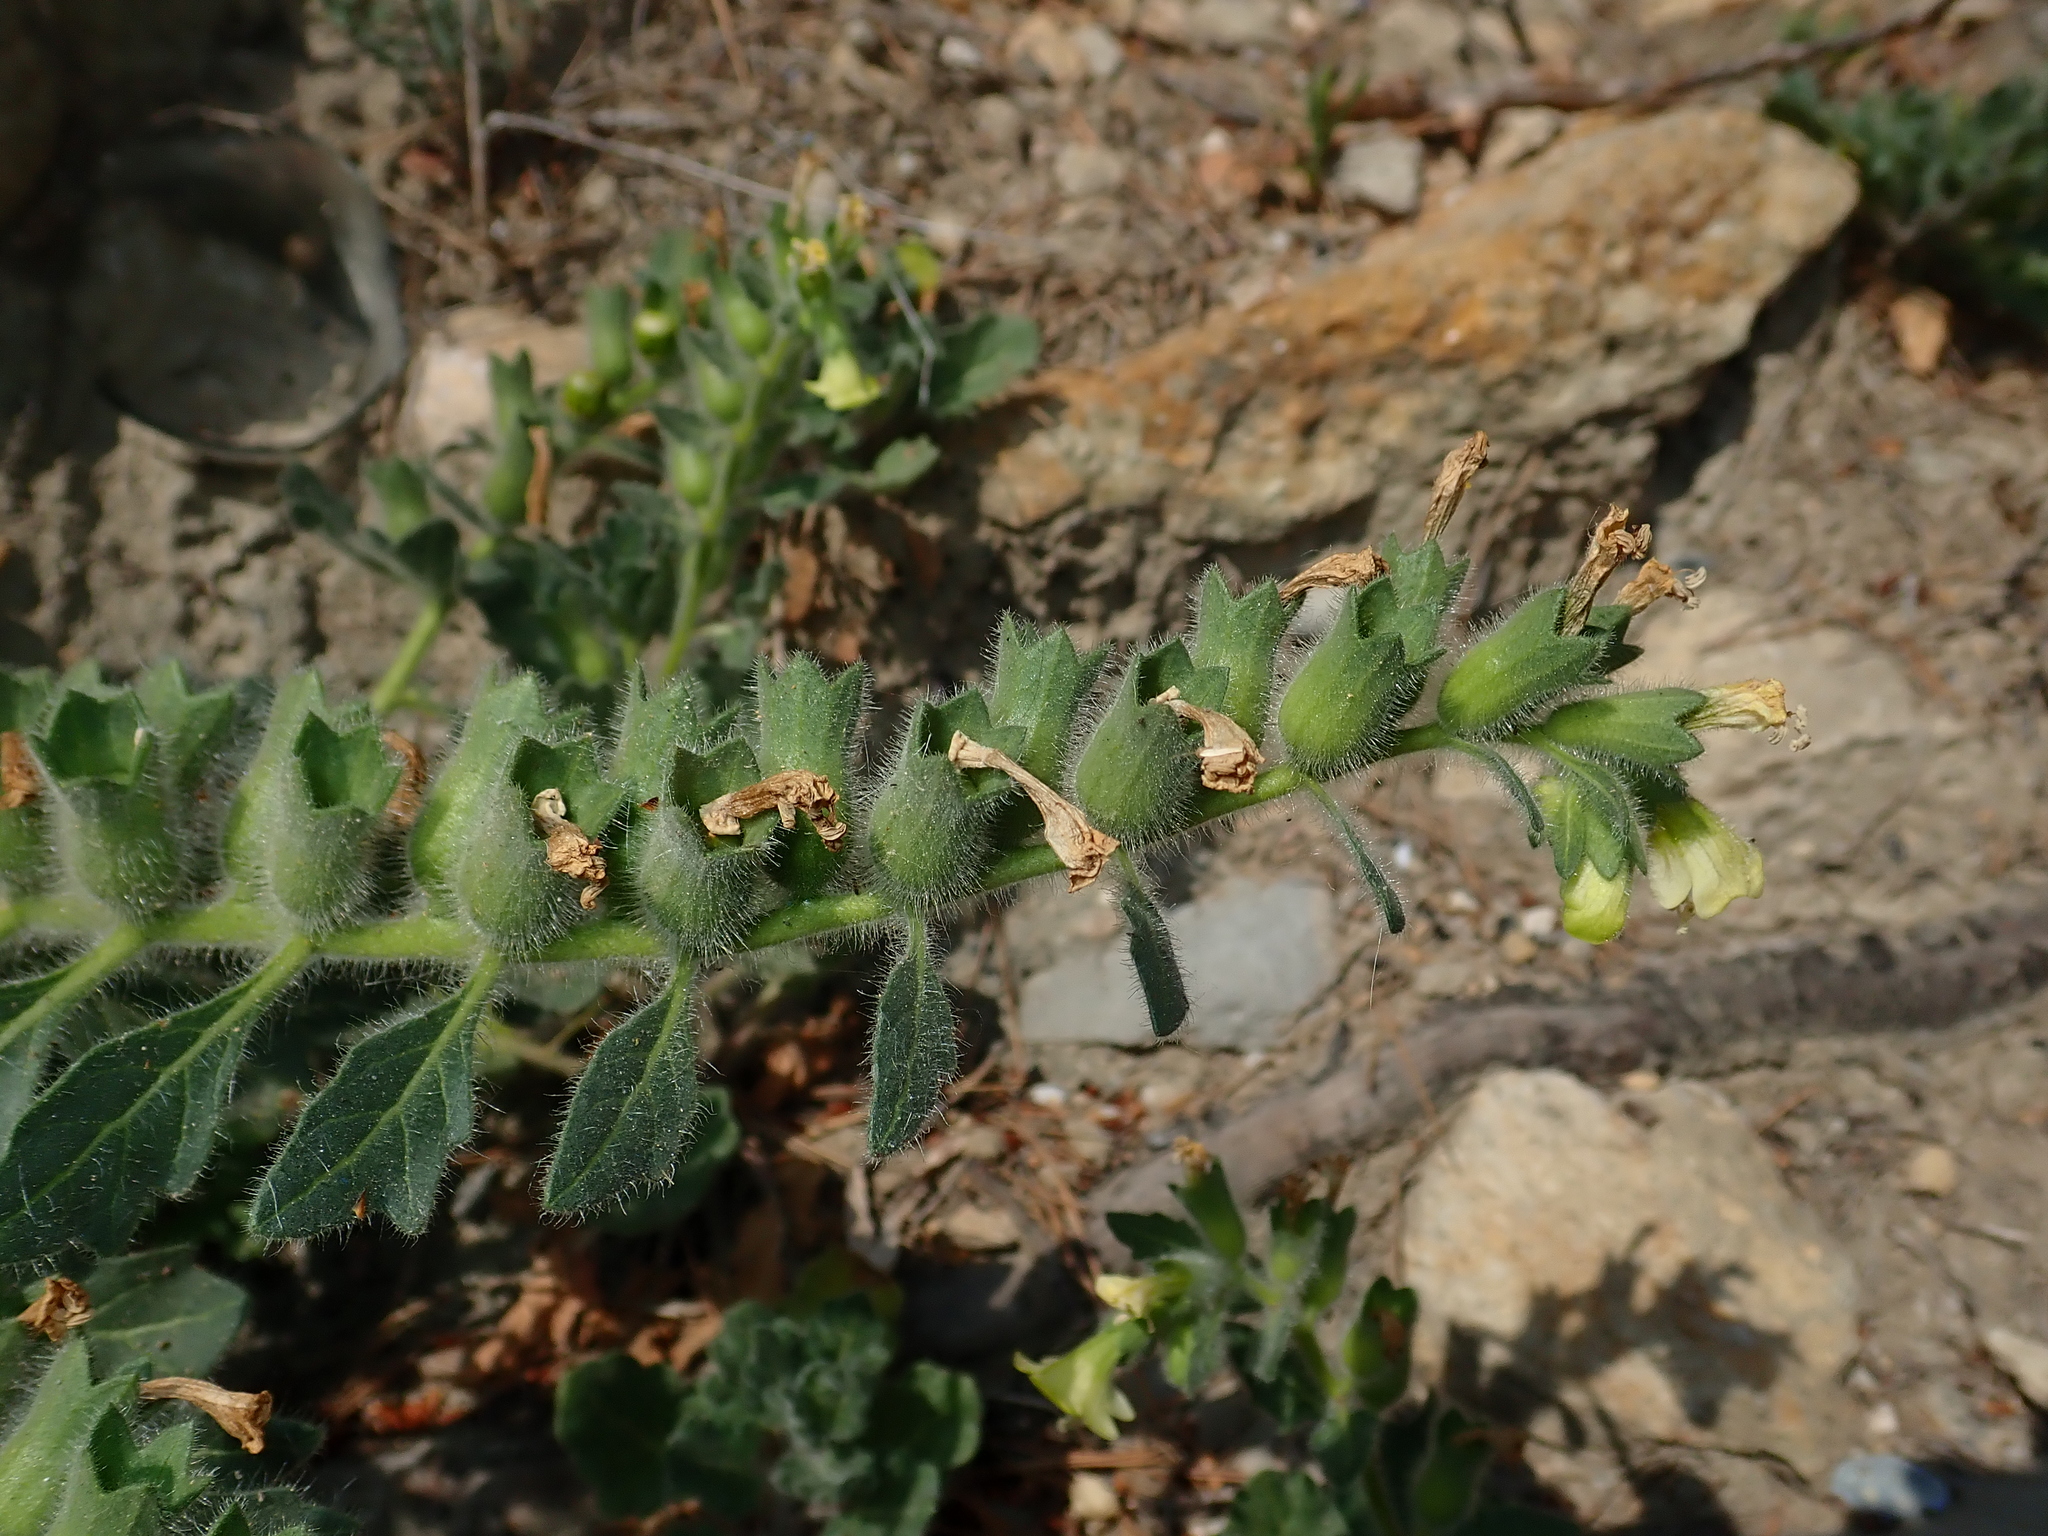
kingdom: Plantae
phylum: Tracheophyta
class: Magnoliopsida
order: Solanales
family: Solanaceae
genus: Hyoscyamus
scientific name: Hyoscyamus albus
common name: White henbane
